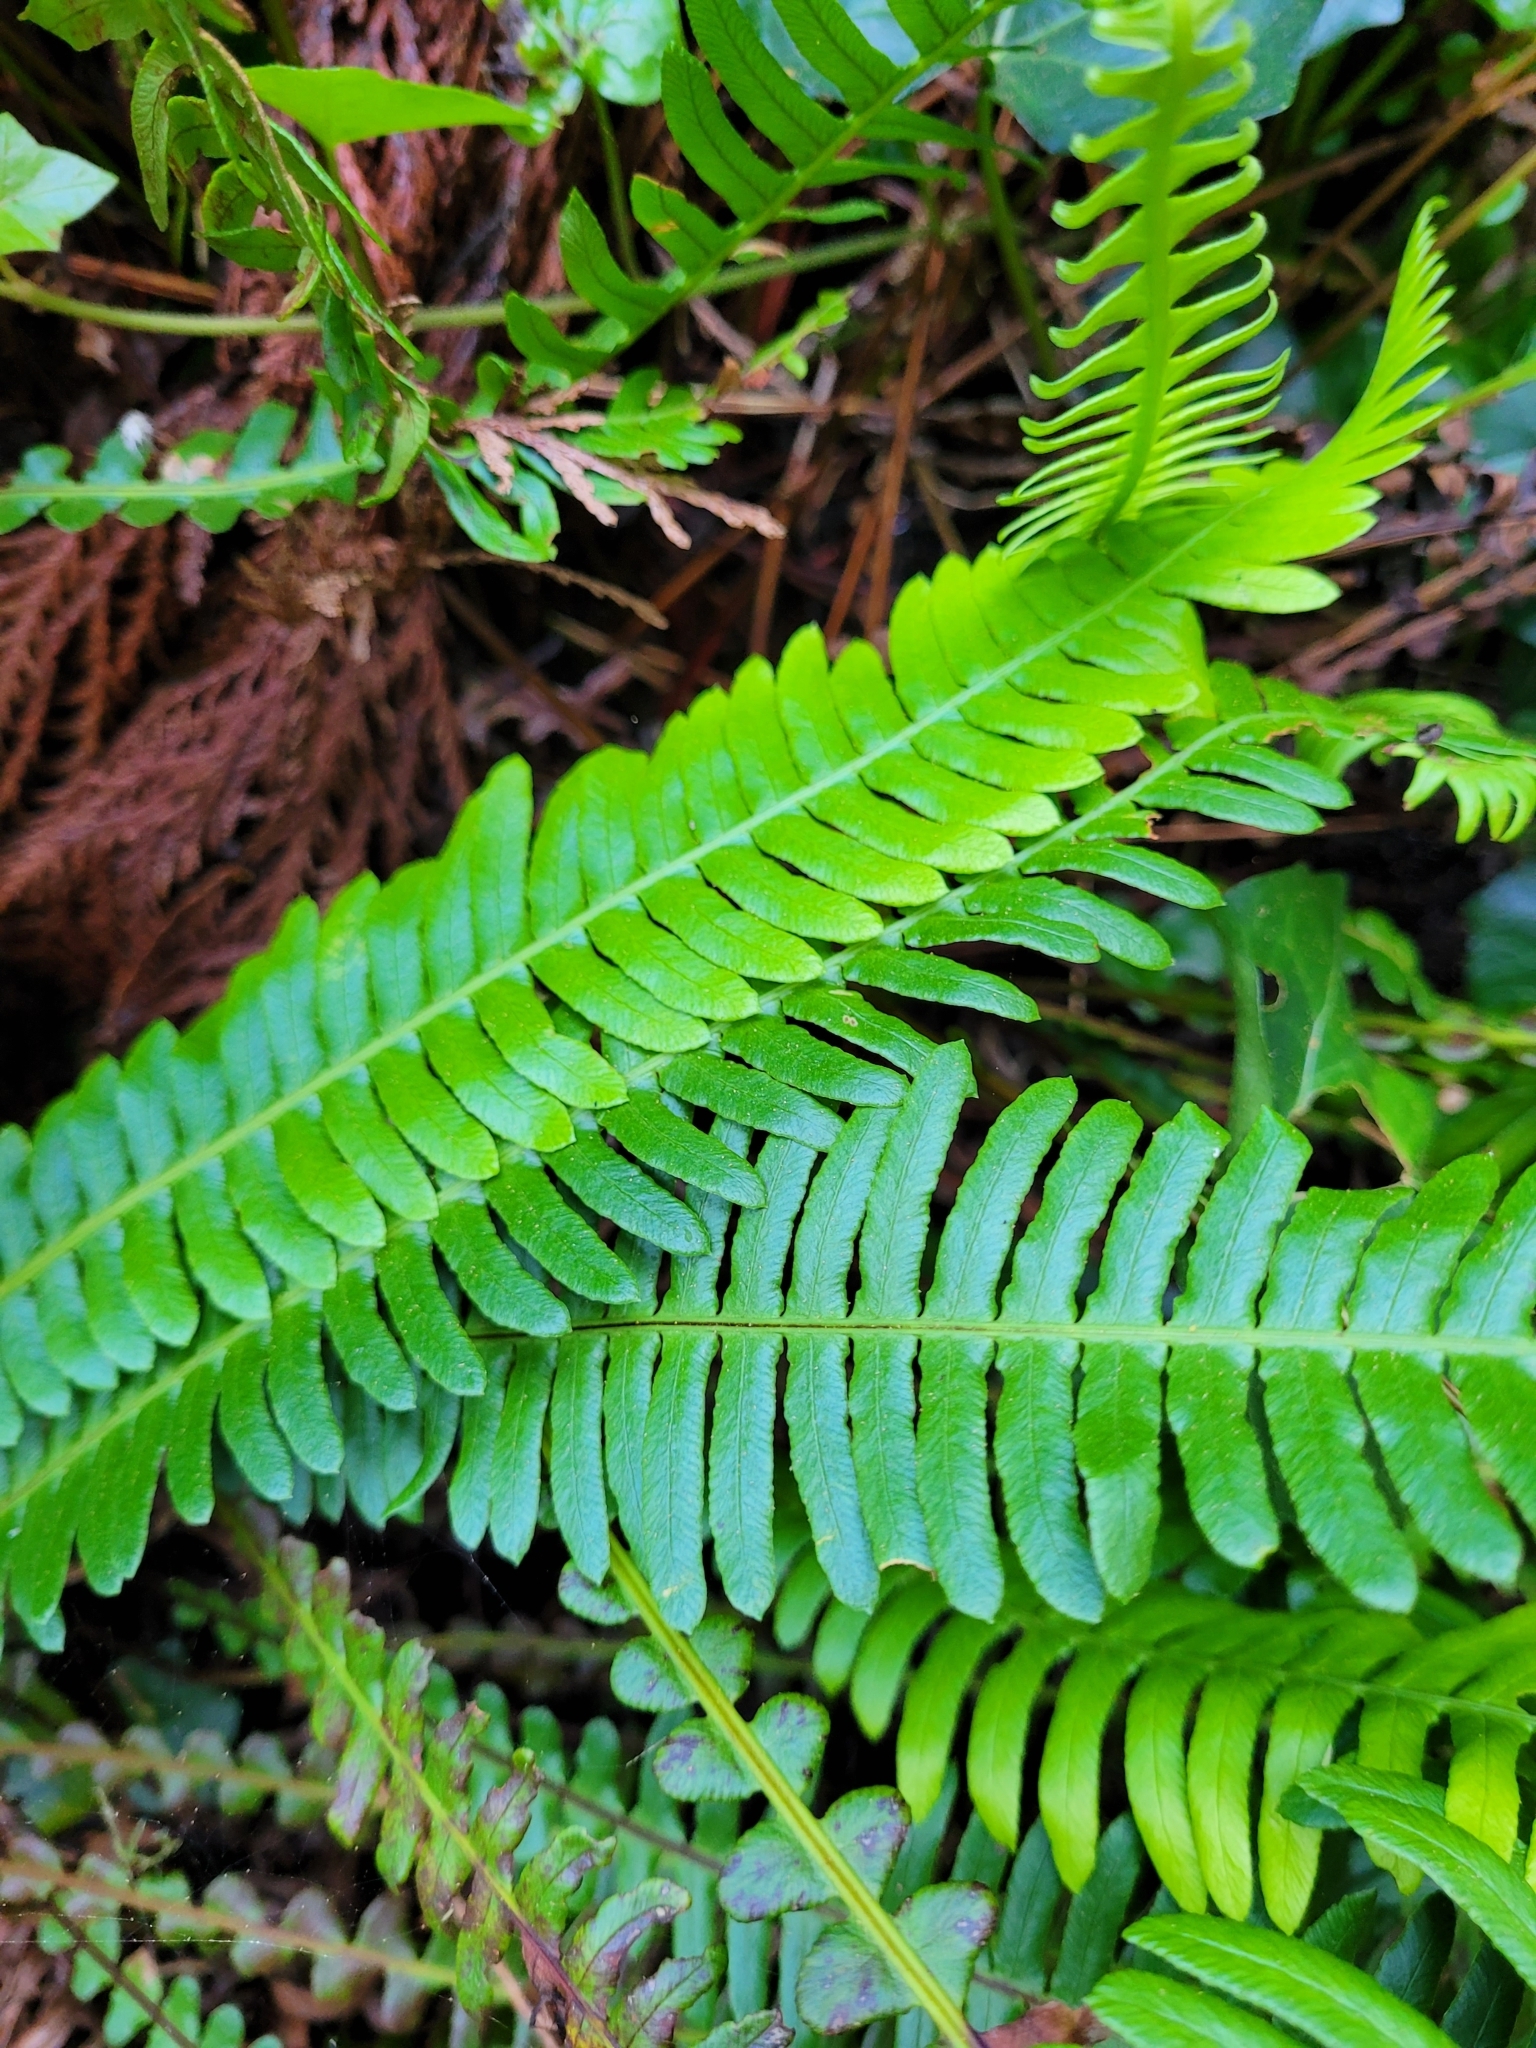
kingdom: Plantae
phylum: Tracheophyta
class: Polypodiopsida
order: Polypodiales
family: Blechnaceae
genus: Struthiopteris
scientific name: Struthiopteris spicant
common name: Deer fern
